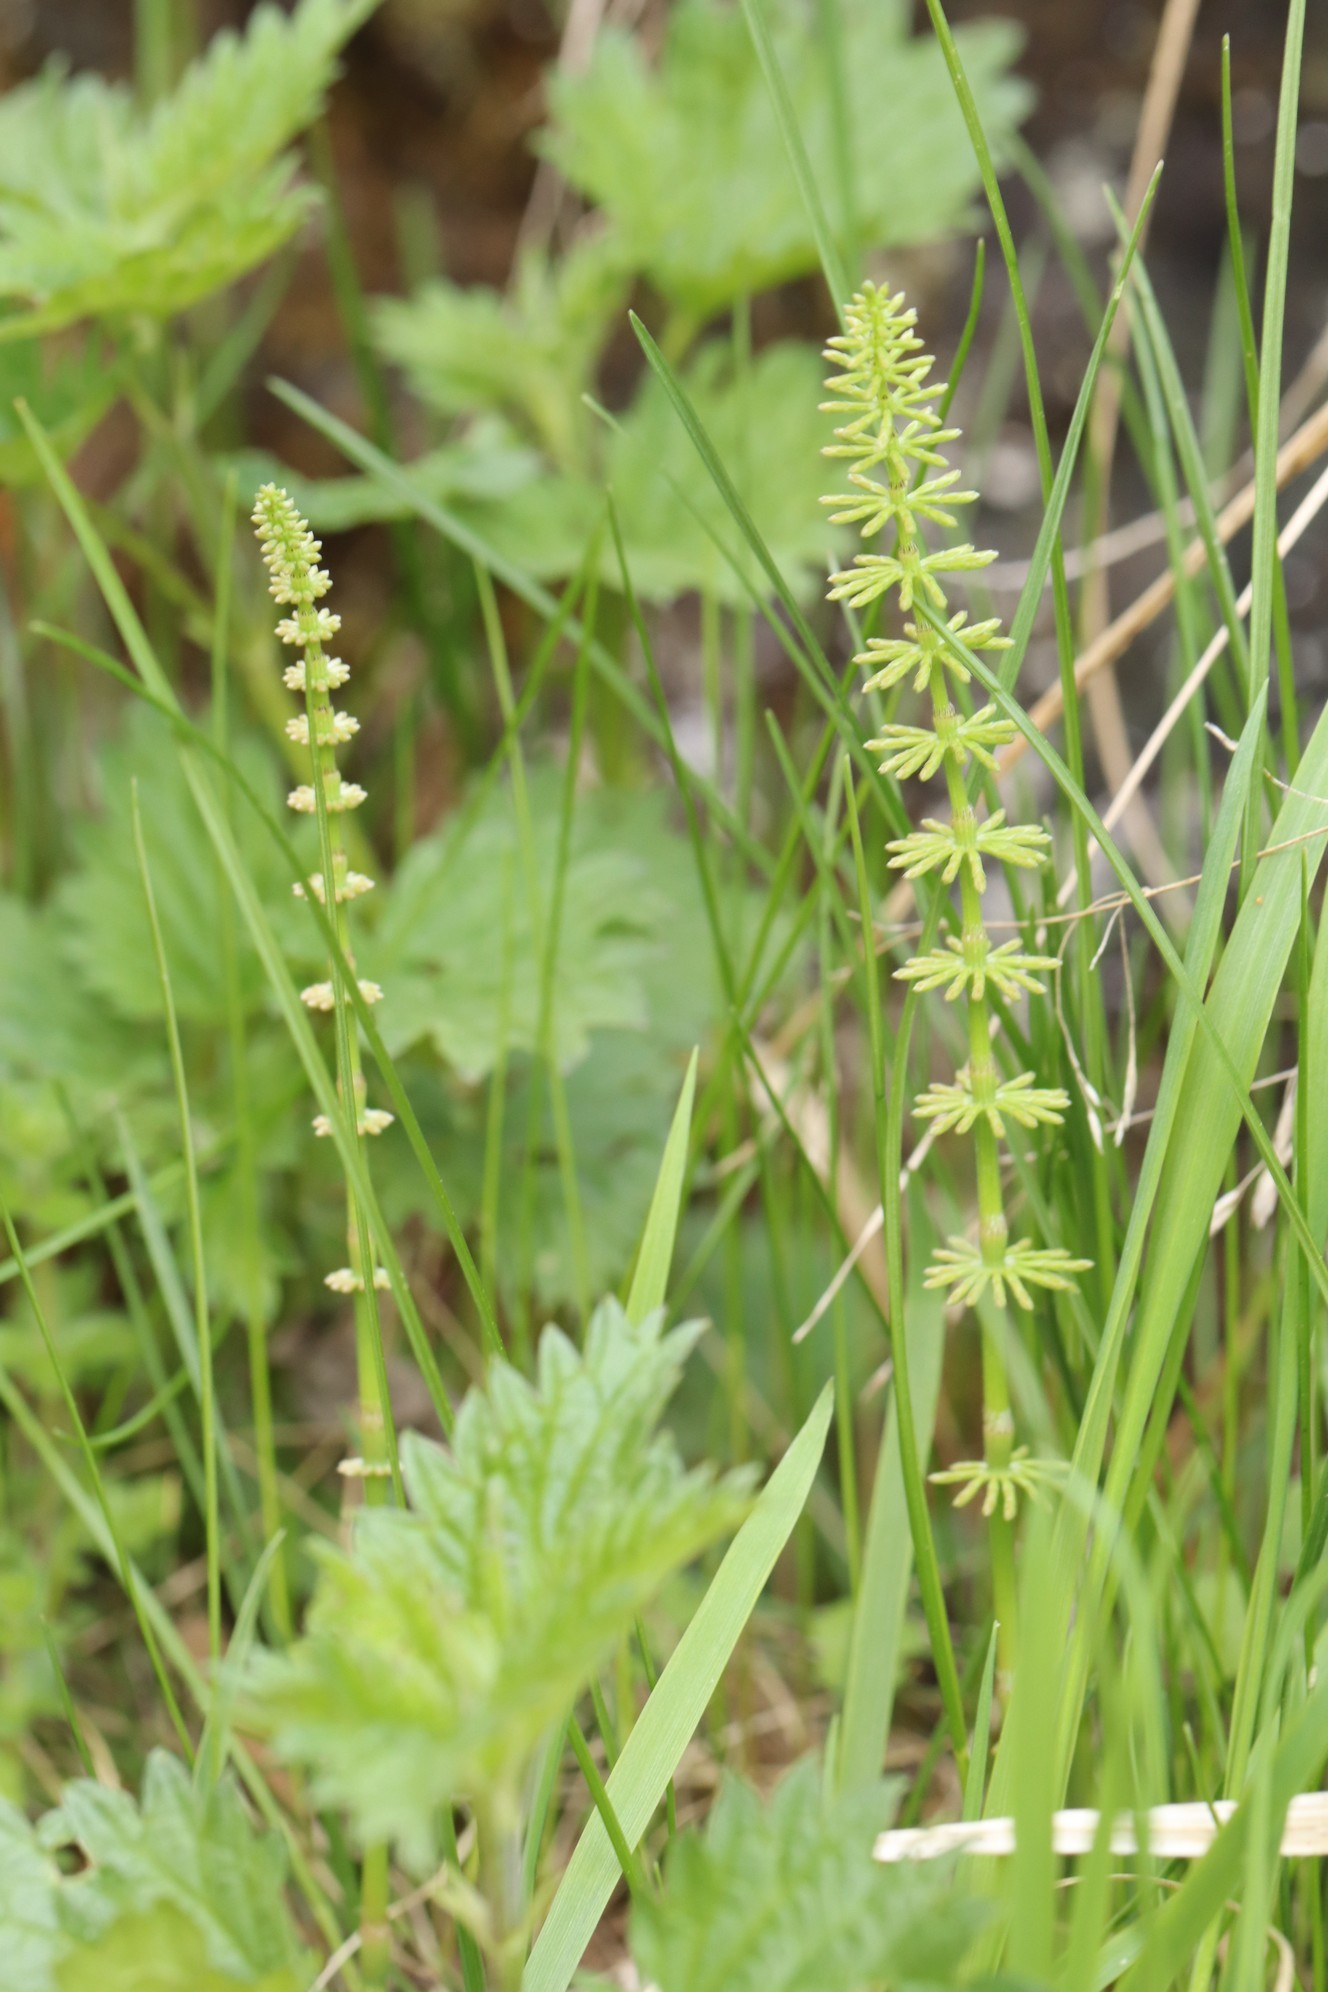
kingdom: Plantae
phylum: Tracheophyta
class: Polypodiopsida
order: Equisetales
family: Equisetaceae
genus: Equisetum
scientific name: Equisetum pratense
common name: Meadow horsetail
